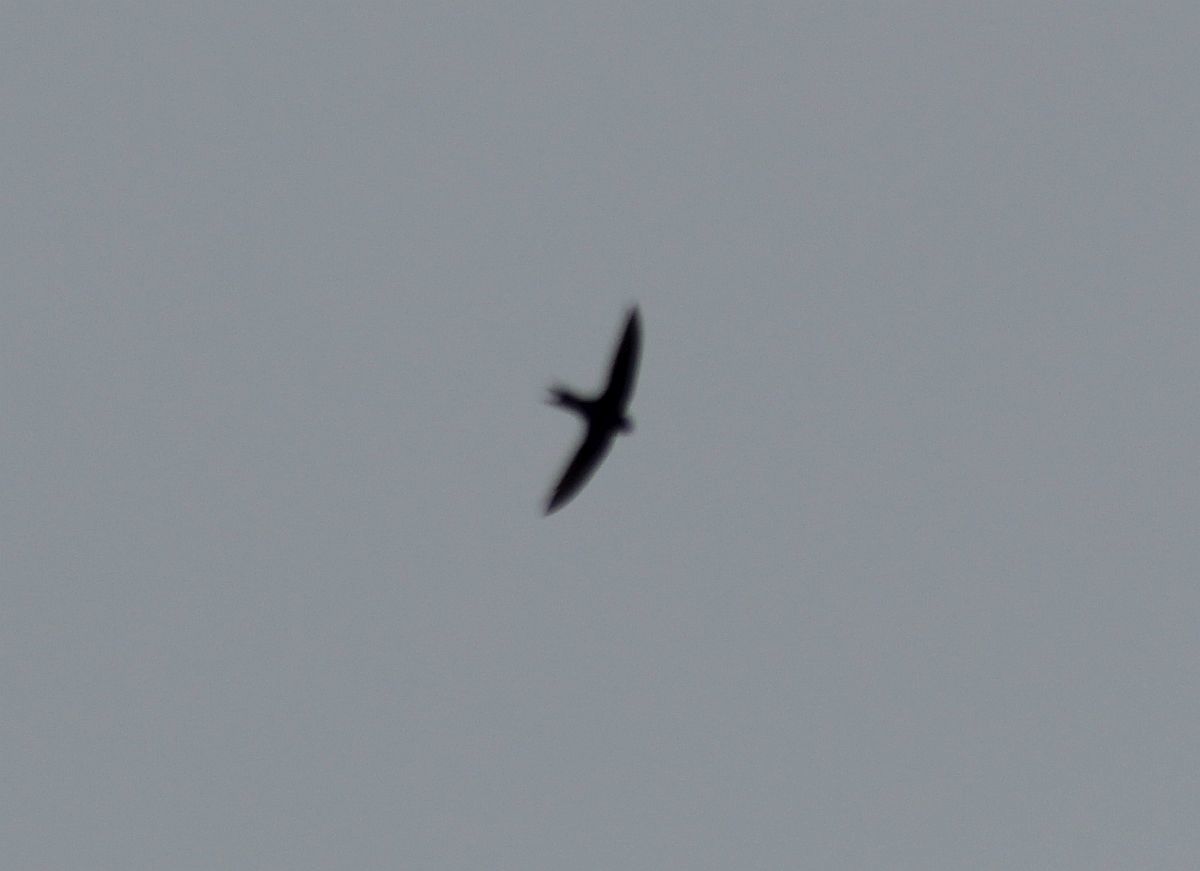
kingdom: Animalia
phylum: Chordata
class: Aves
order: Apodiformes
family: Apodidae
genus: Apus
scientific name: Apus apus
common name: Common swift
